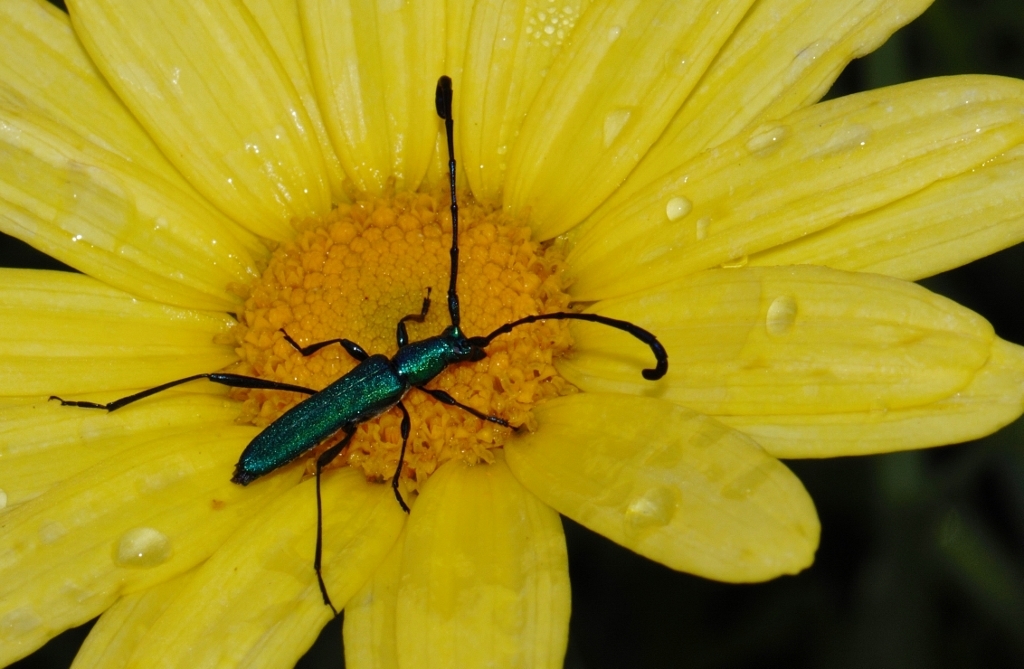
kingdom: Animalia
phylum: Arthropoda
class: Insecta
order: Coleoptera
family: Cerambycidae
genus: Hypocrites
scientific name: Hypocrites
